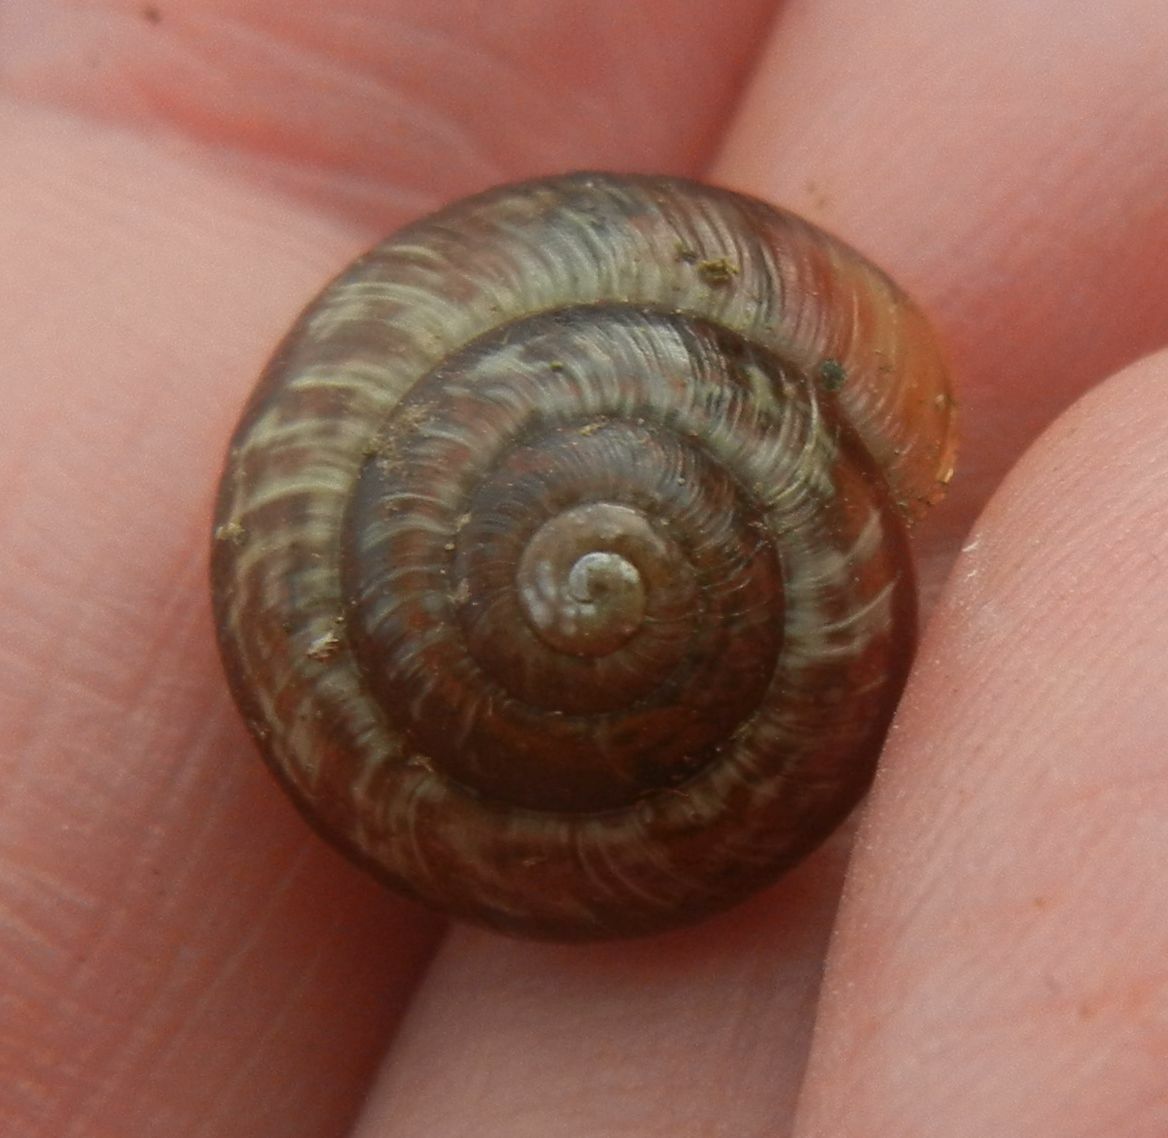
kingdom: Animalia
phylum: Mollusca
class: Gastropoda
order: Stylommatophora
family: Helicidae
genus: Arianta
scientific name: Arianta arbustorum
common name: Copse snail
